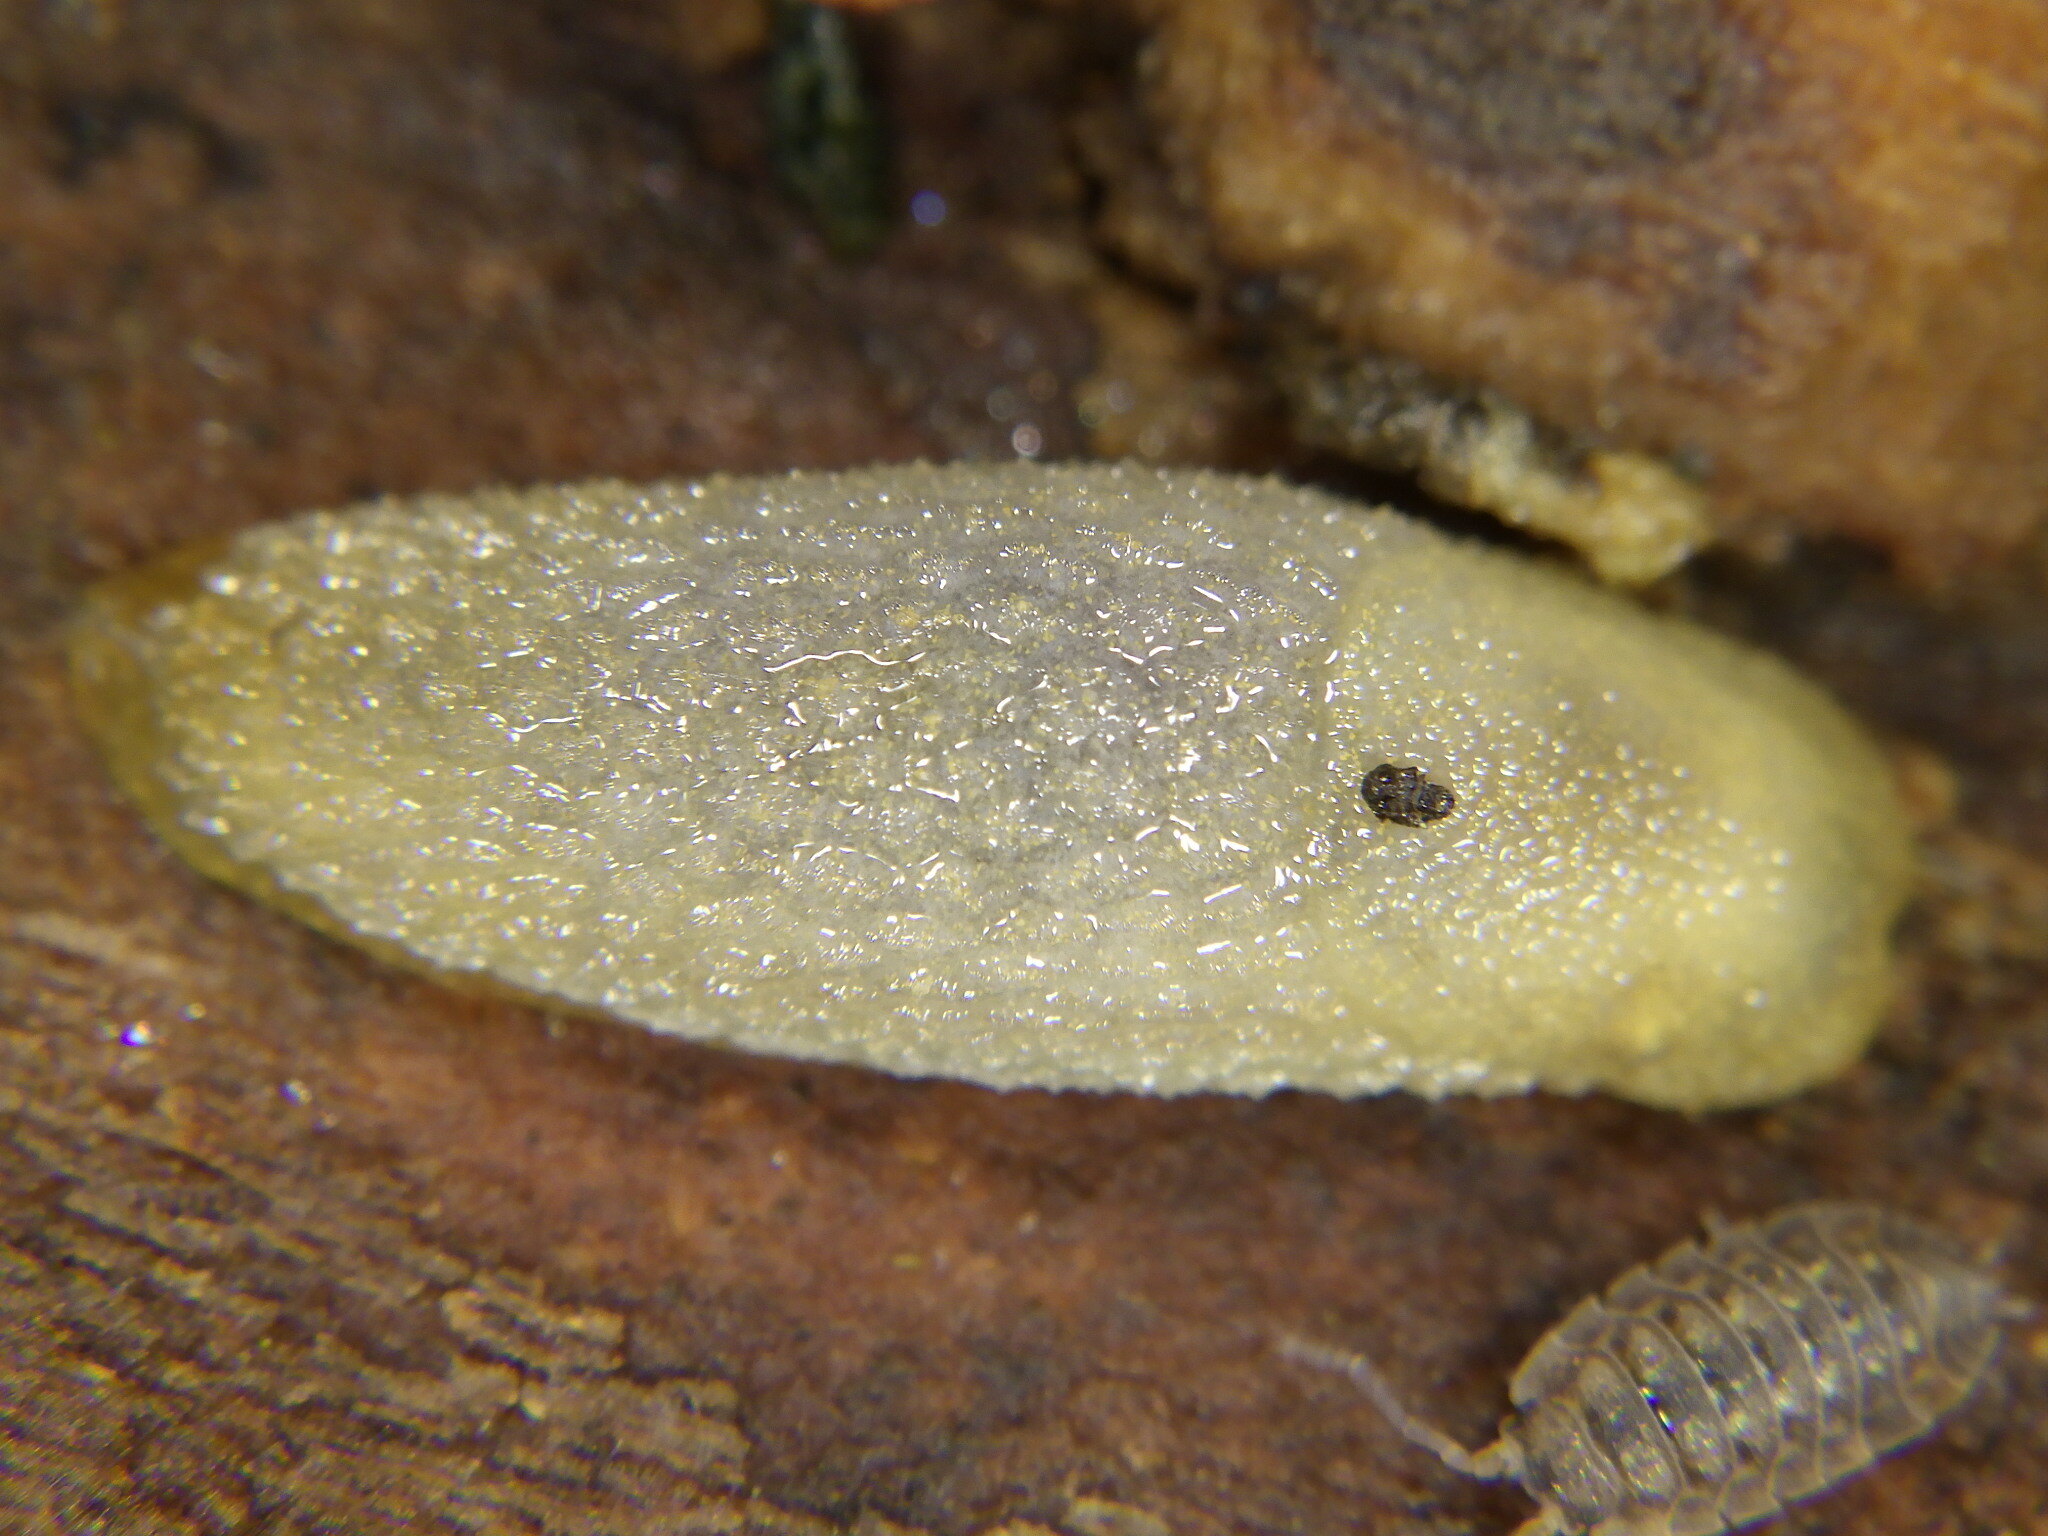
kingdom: Animalia
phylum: Mollusca
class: Gastropoda
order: Stylommatophora
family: Arionidae
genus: Arion
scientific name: Arion intermedius
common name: Hedgehog slug
